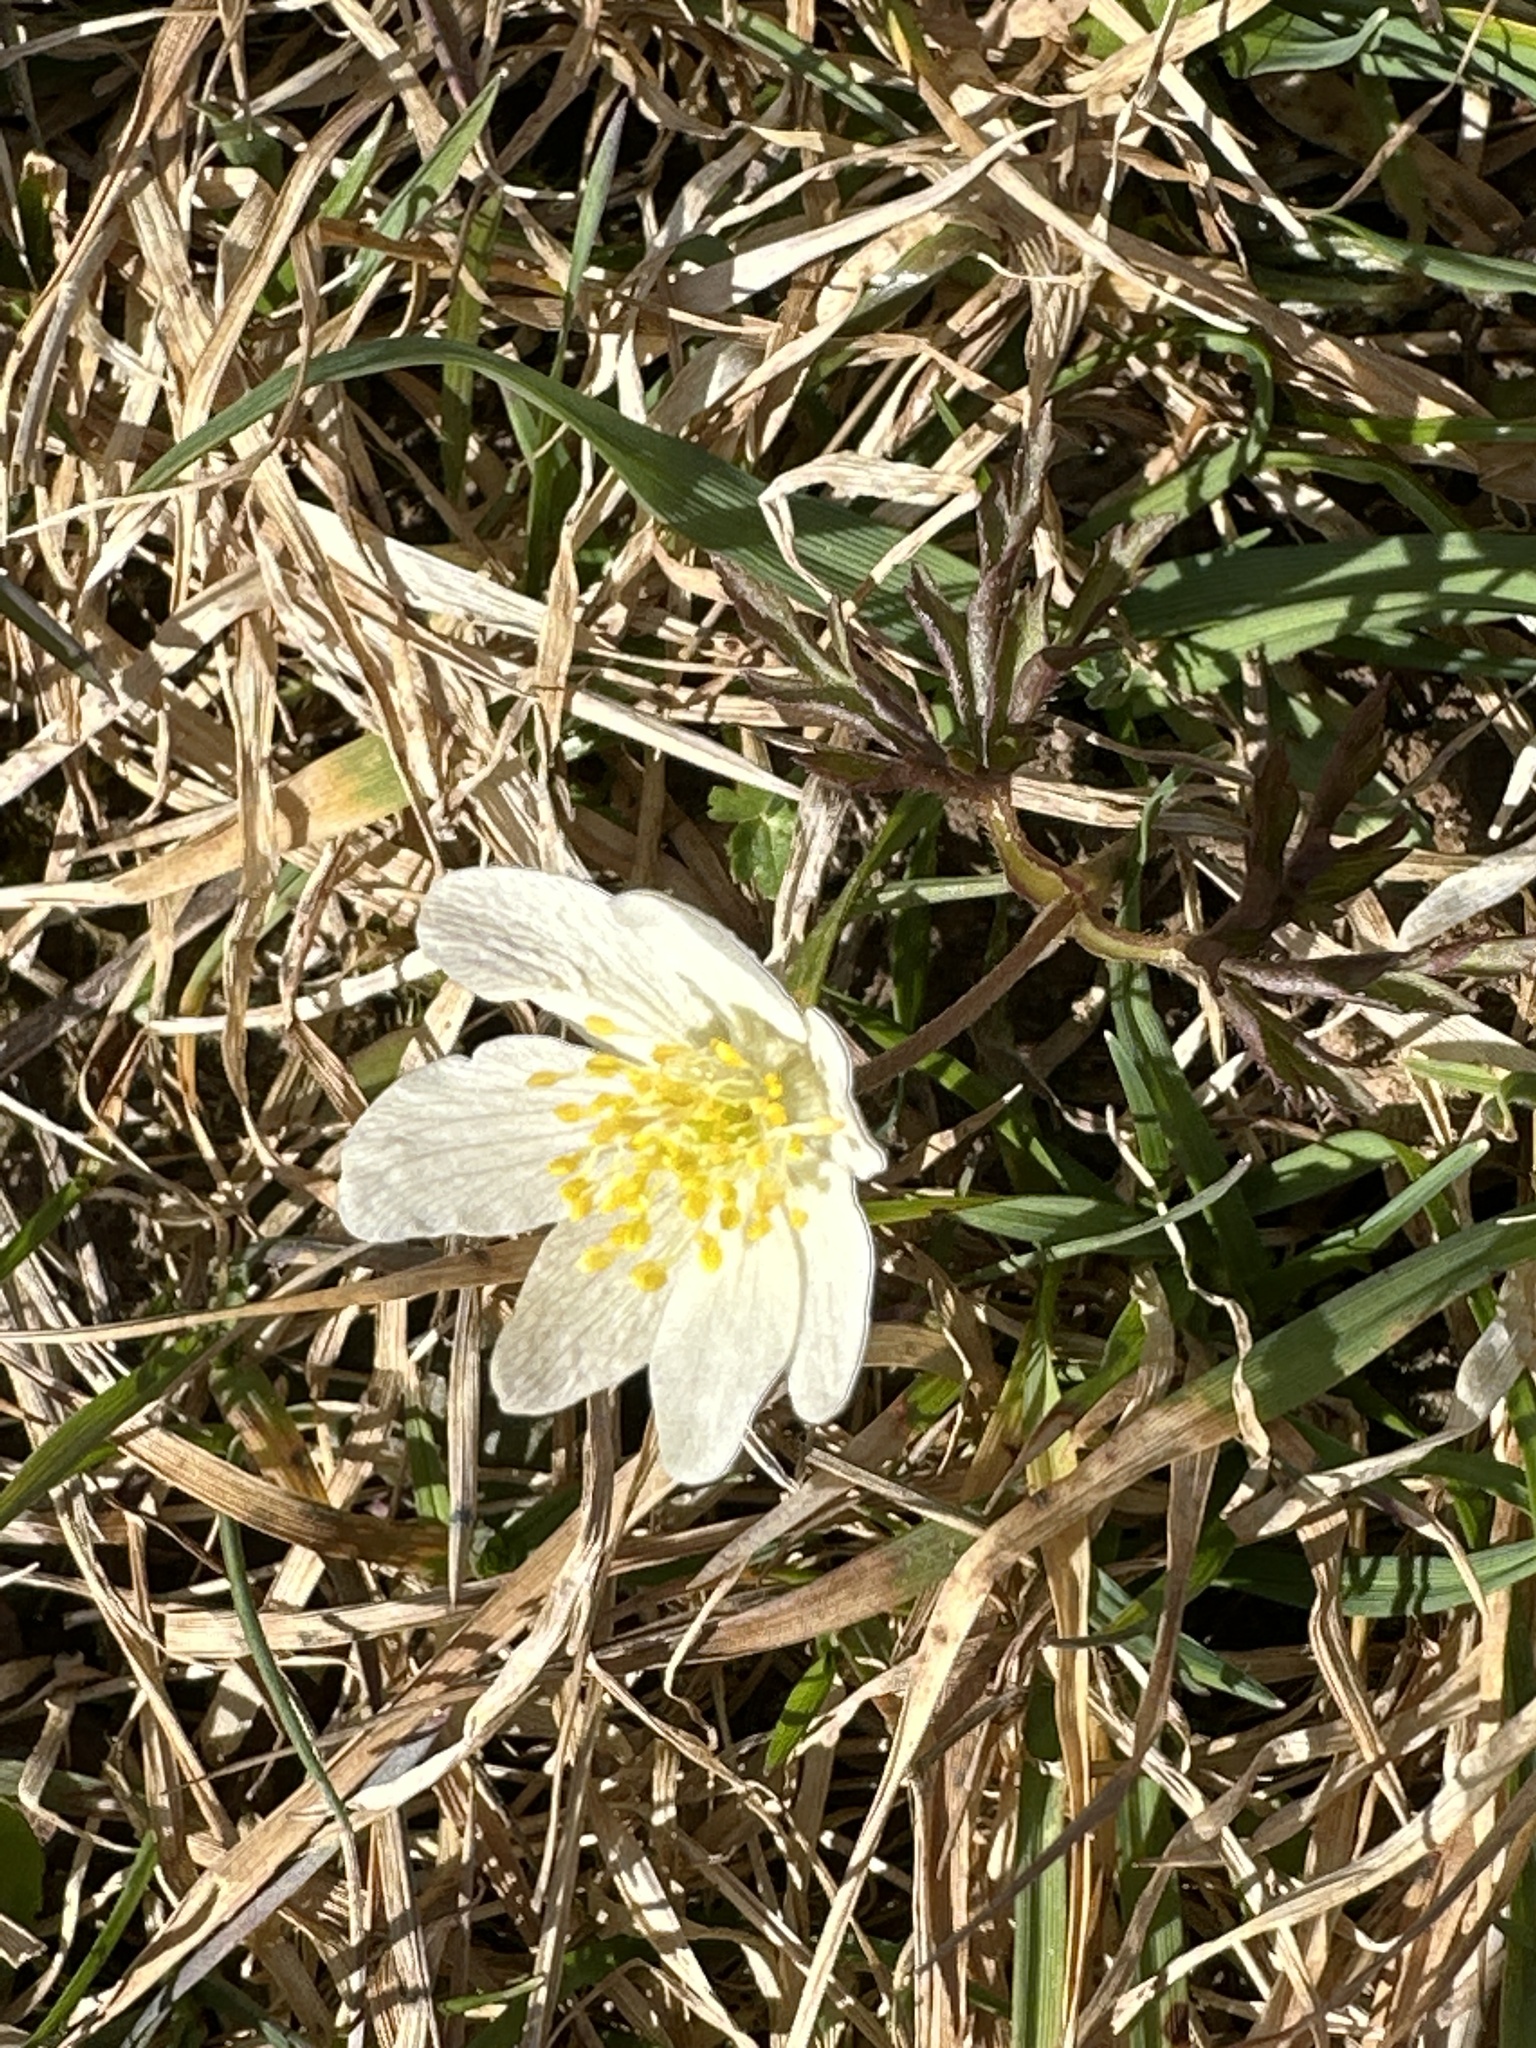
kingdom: Plantae
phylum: Tracheophyta
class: Magnoliopsida
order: Ranunculales
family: Ranunculaceae
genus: Anemone
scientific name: Anemone nemorosa
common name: Wood anemone
